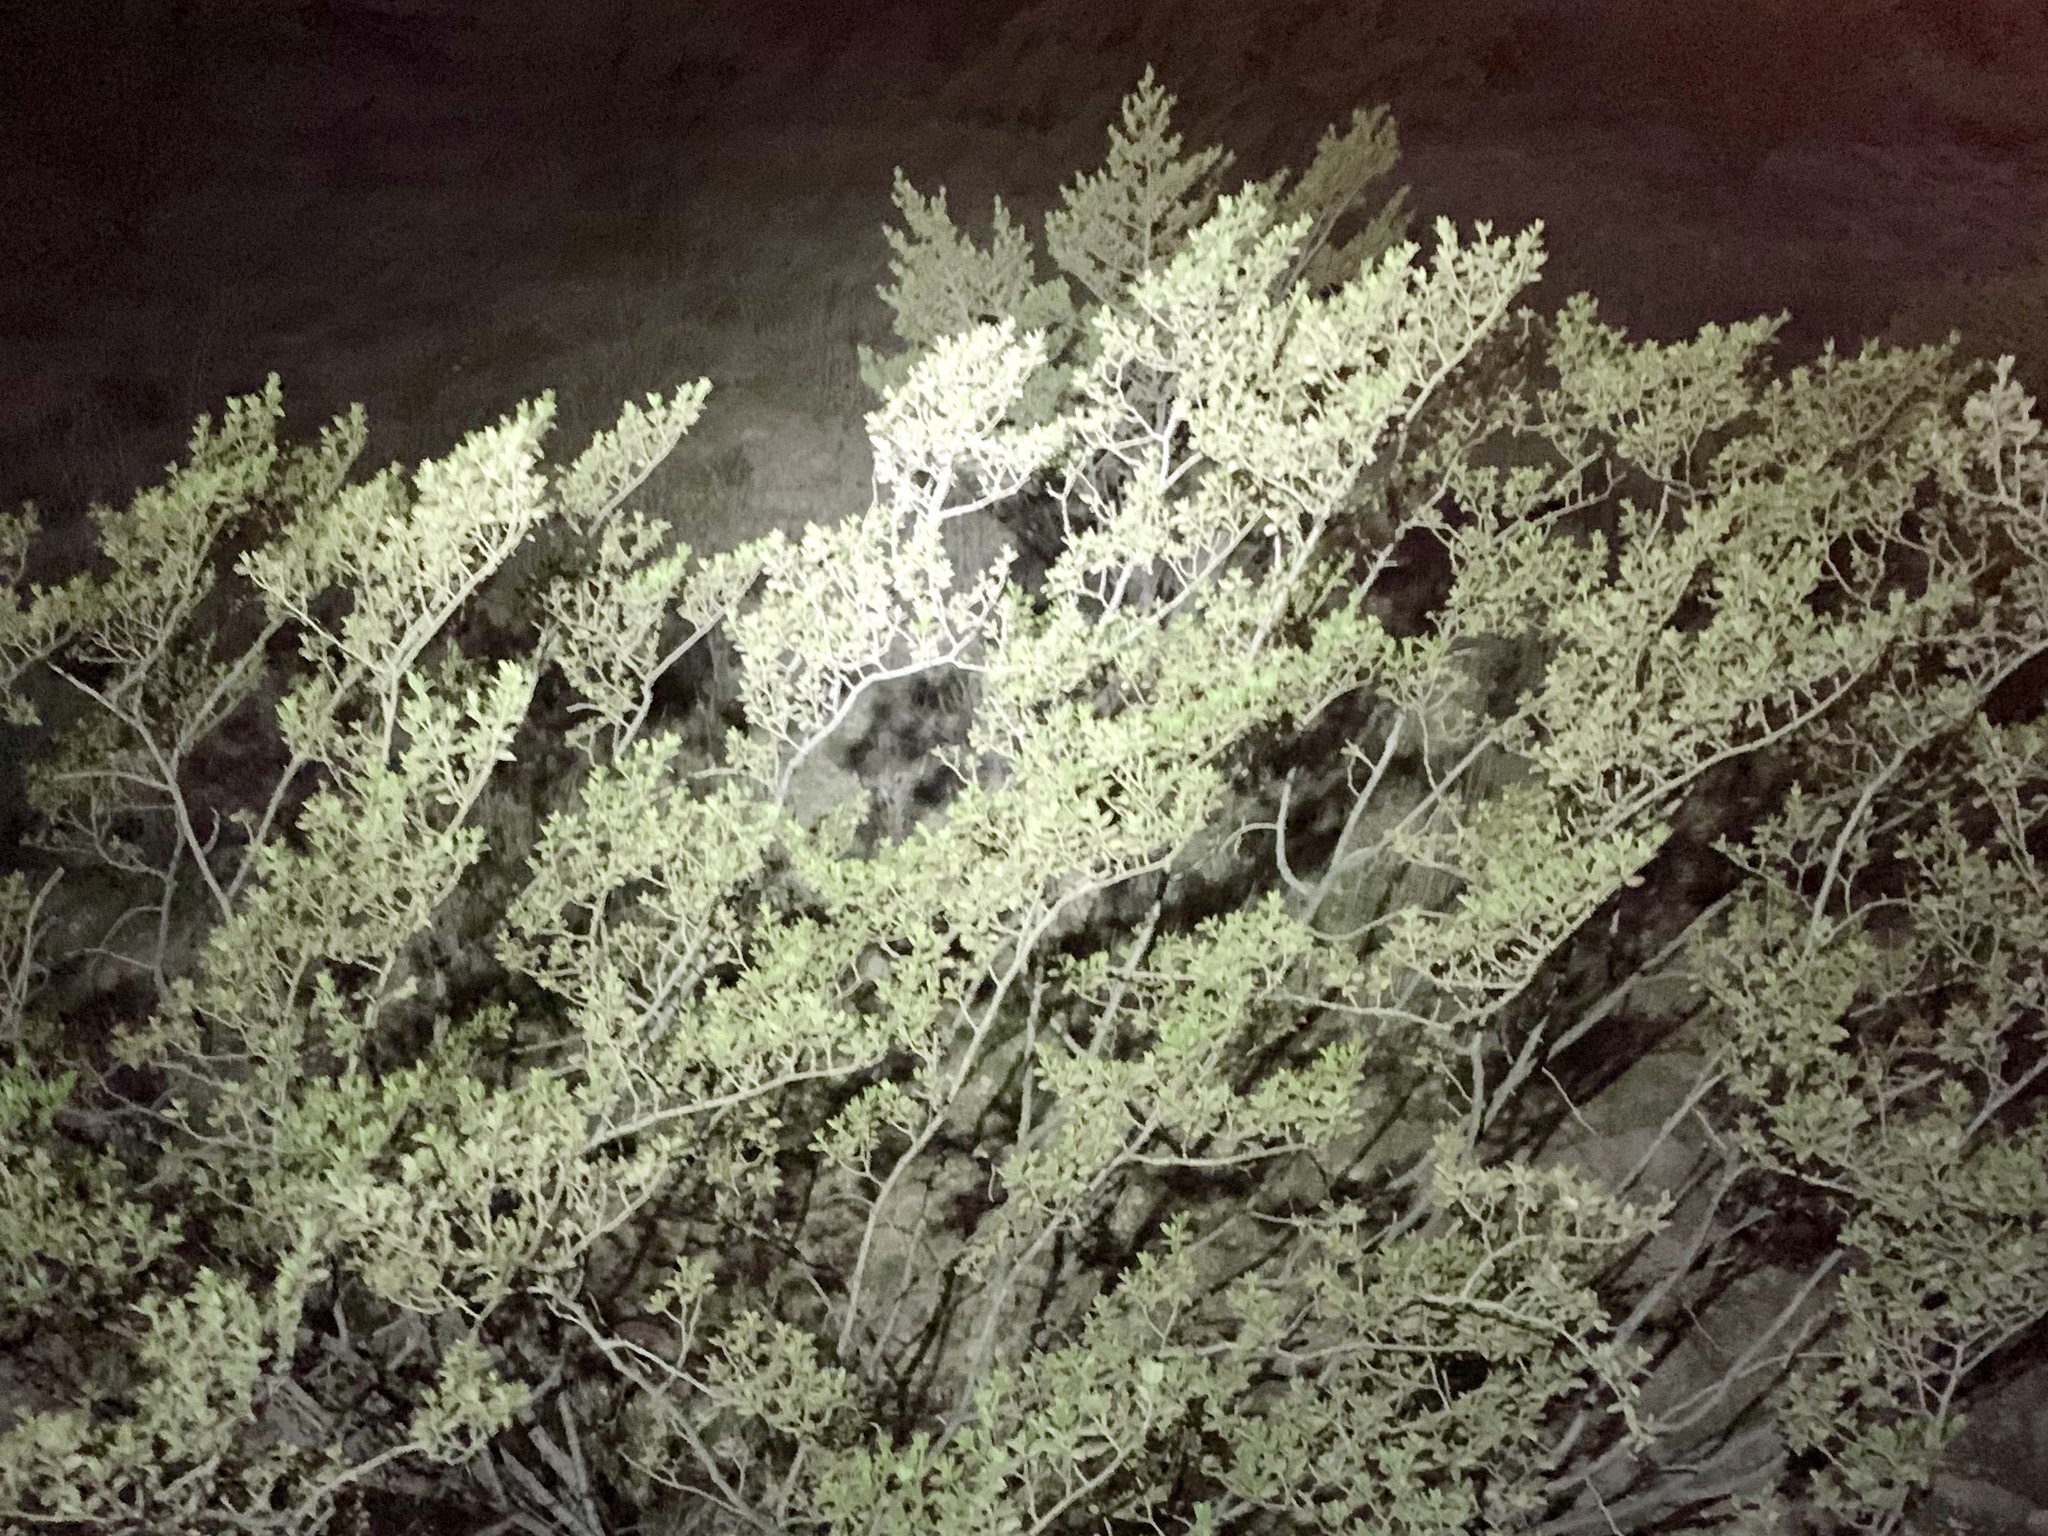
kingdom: Plantae
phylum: Tracheophyta
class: Magnoliopsida
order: Zygophyllales
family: Zygophyllaceae
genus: Larrea
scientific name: Larrea tridentata
